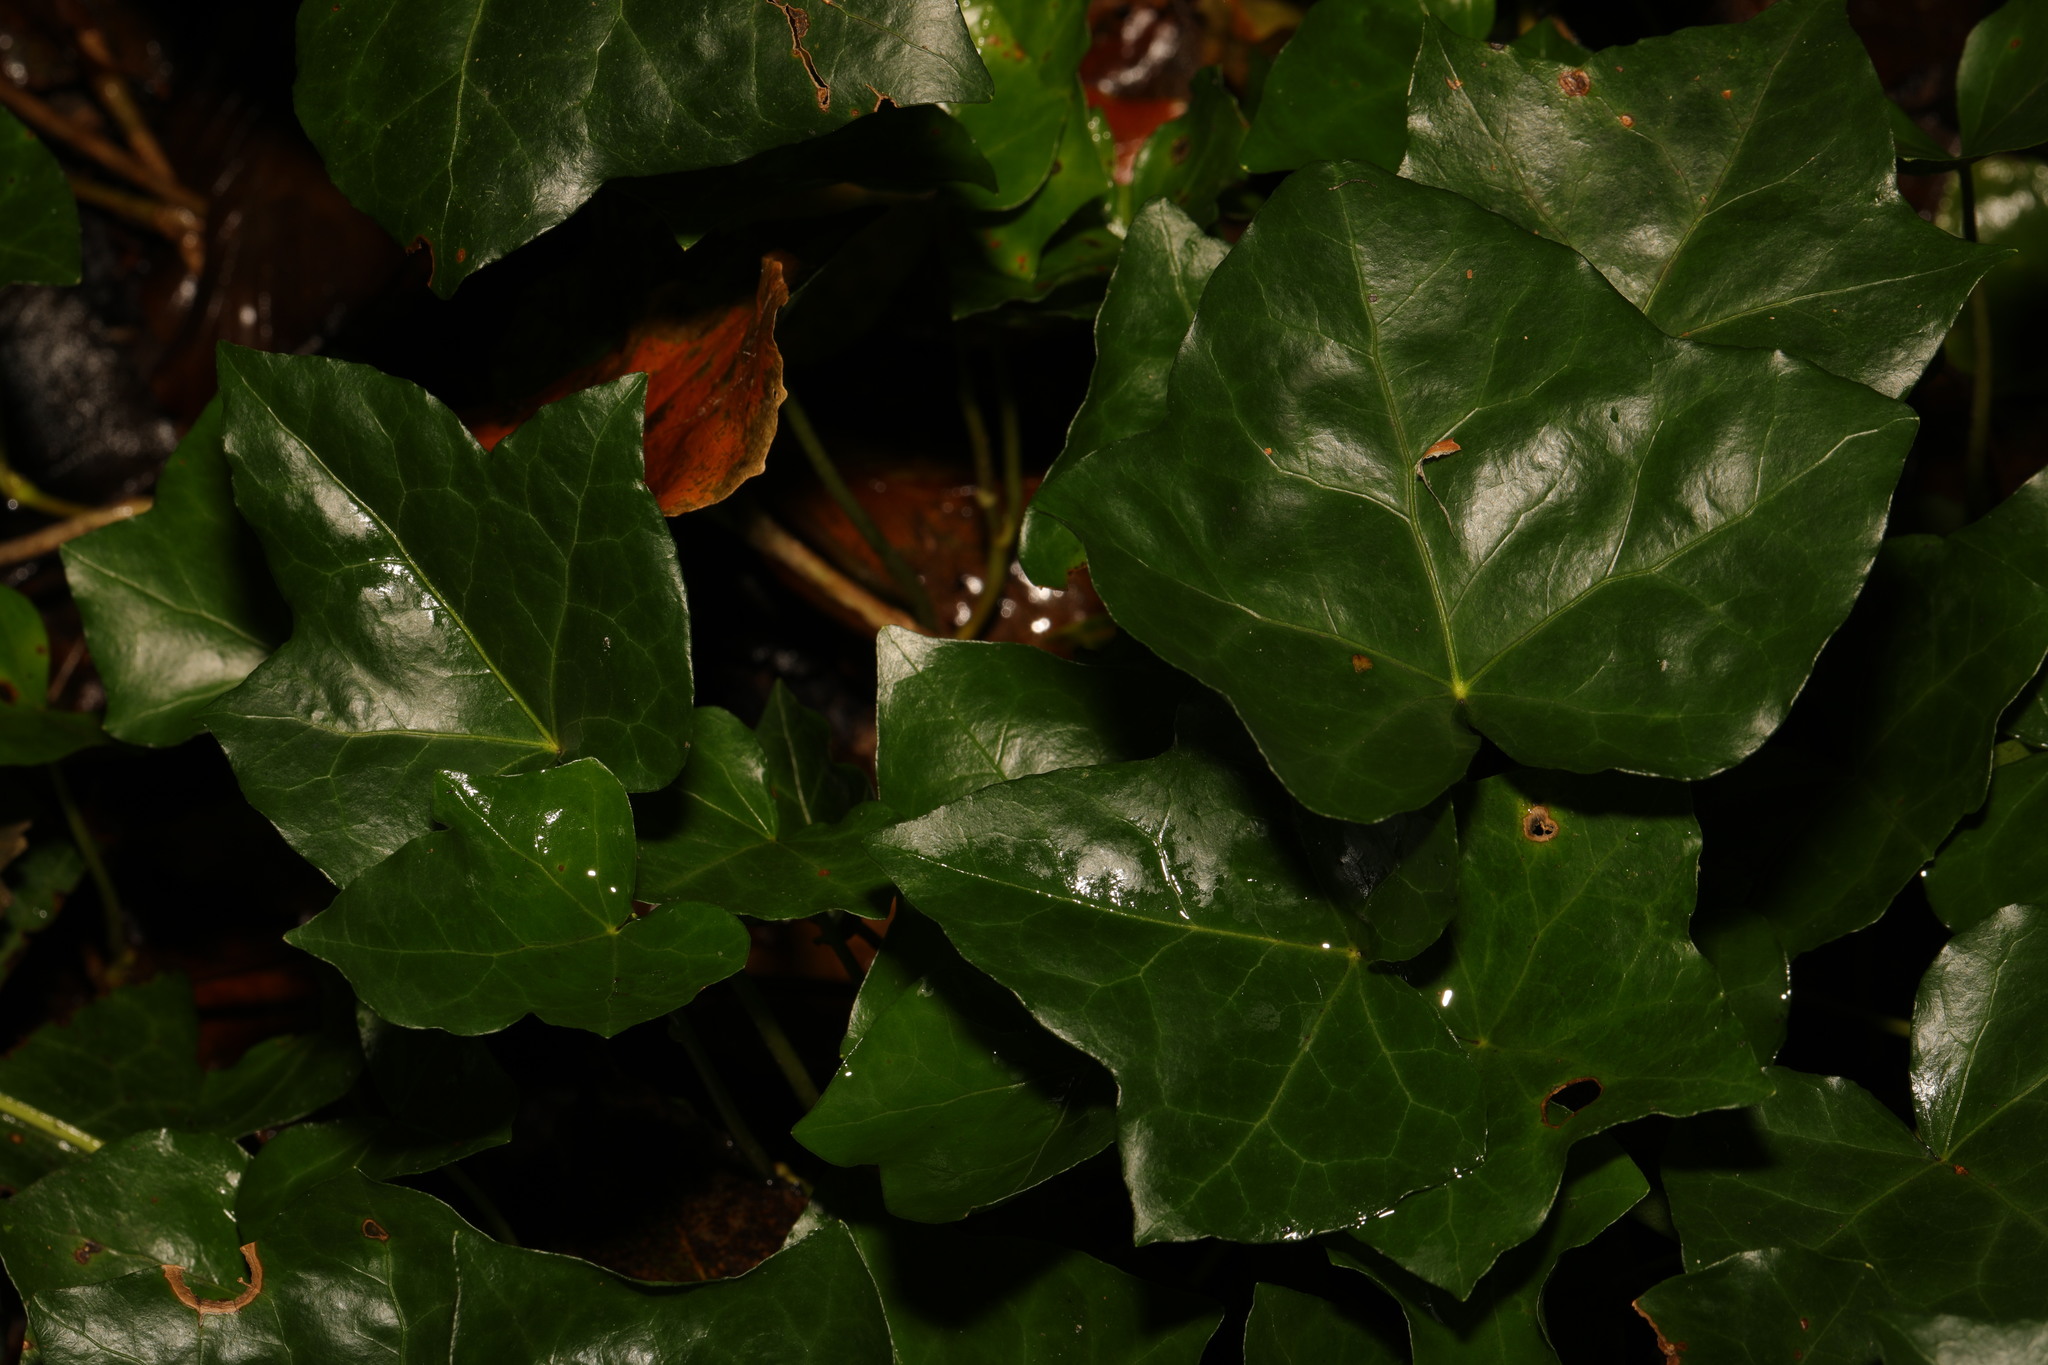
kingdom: Plantae
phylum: Tracheophyta
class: Magnoliopsida
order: Apiales
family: Araliaceae
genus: Hedera
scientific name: Hedera helix
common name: Ivy
